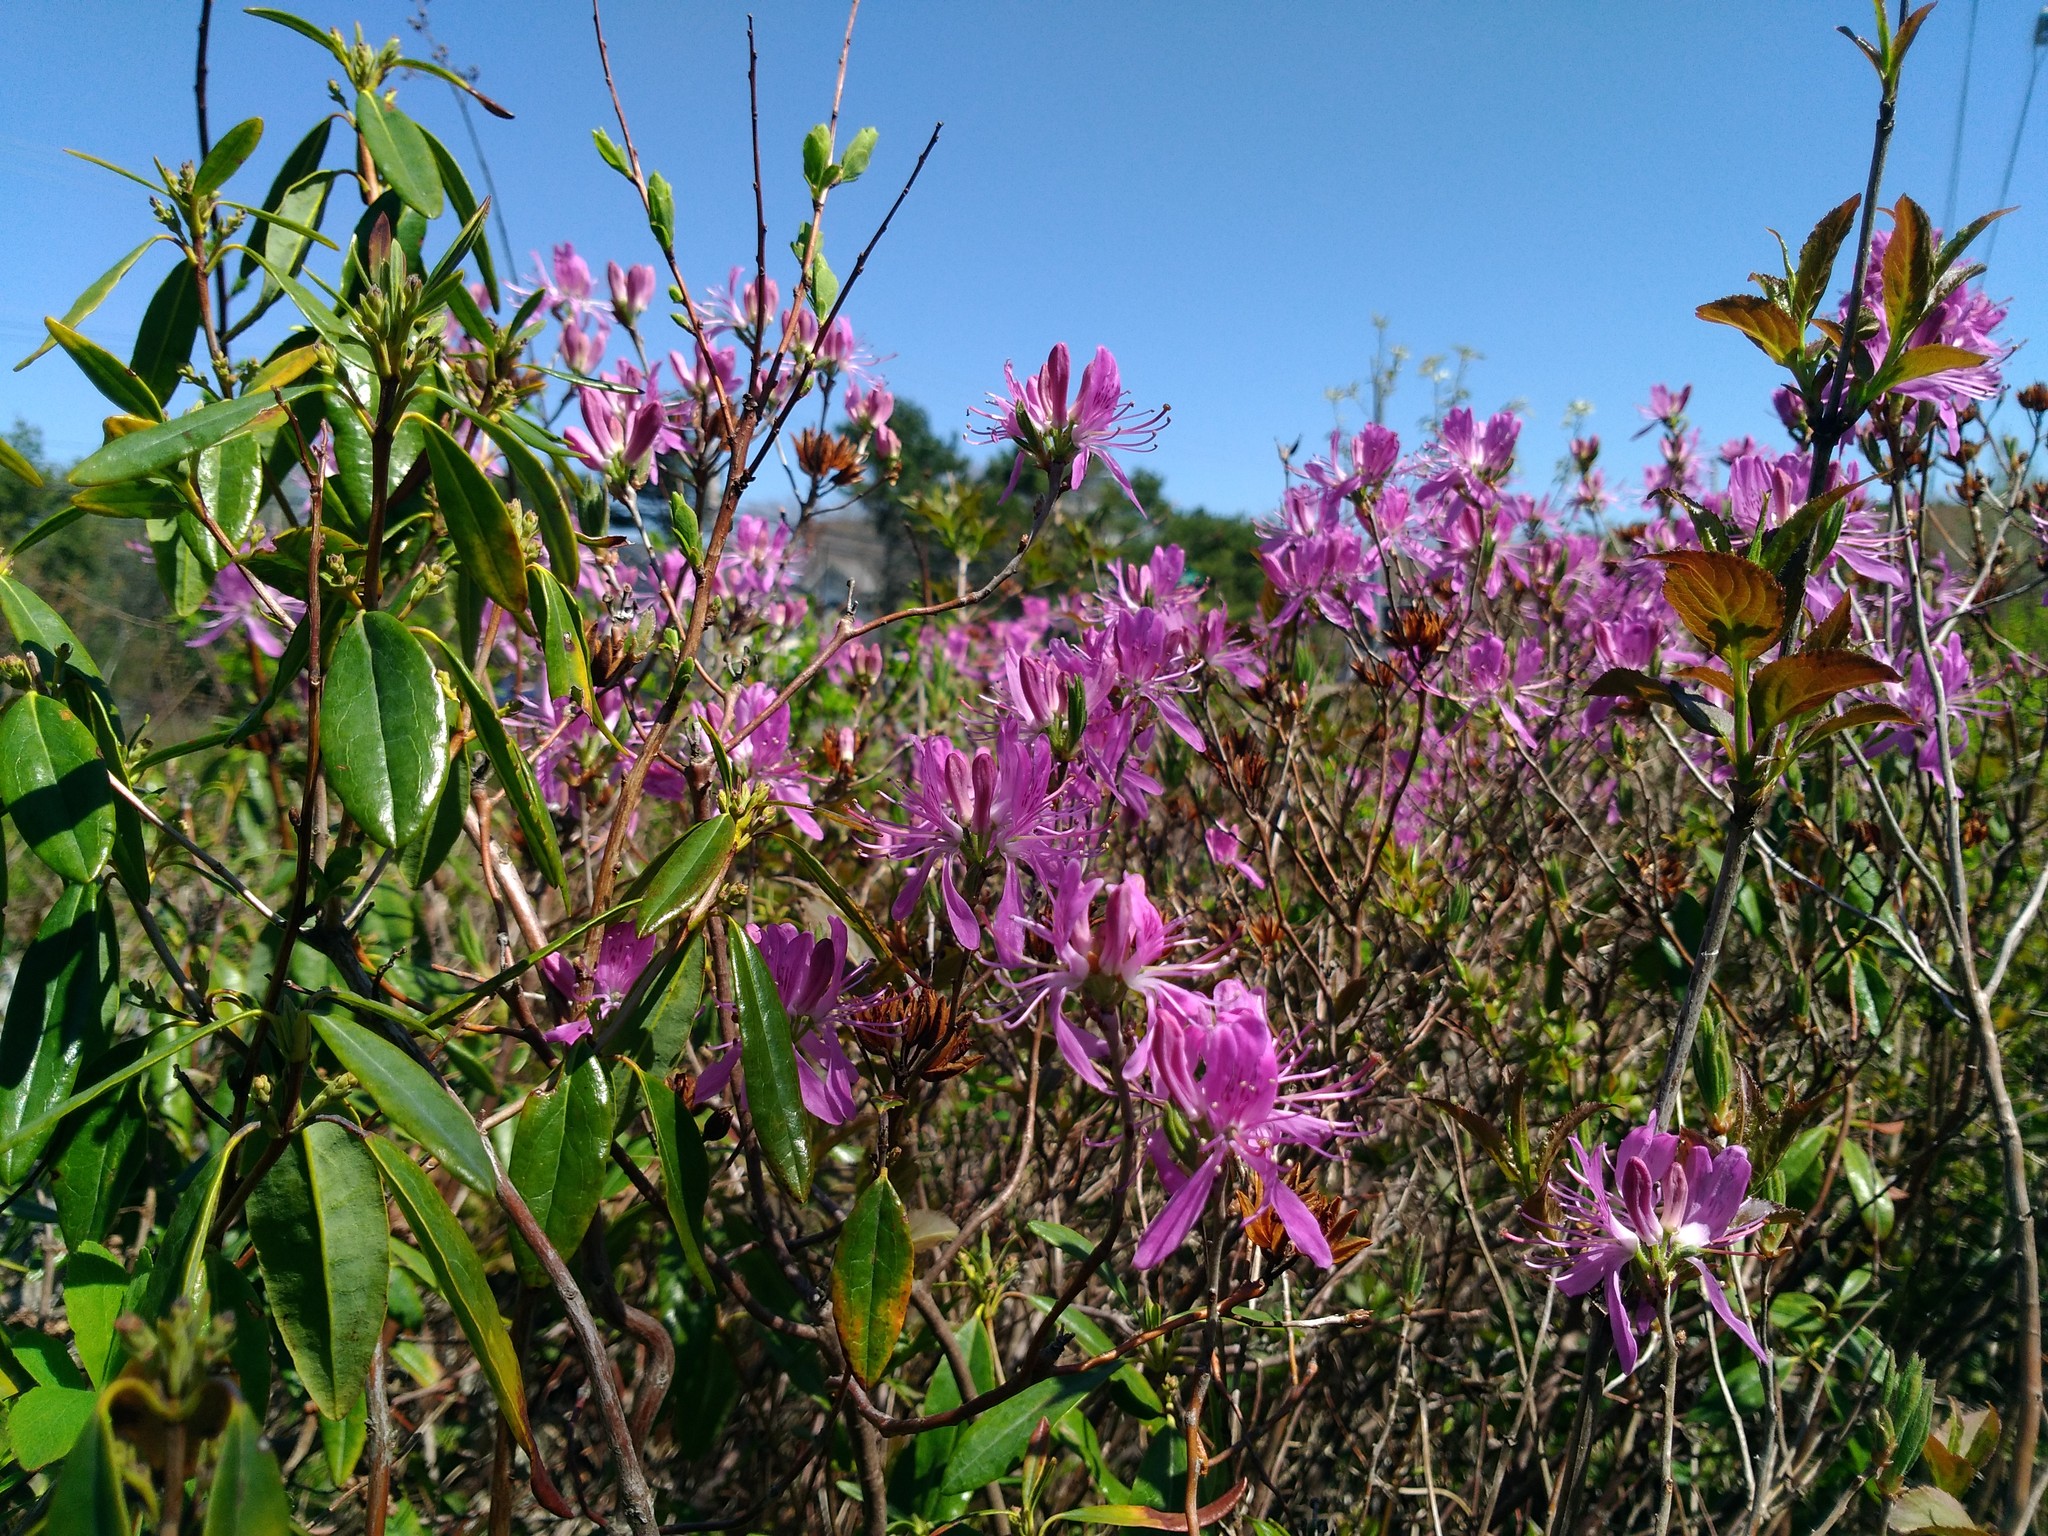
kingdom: Plantae
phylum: Tracheophyta
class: Magnoliopsida
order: Ericales
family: Ericaceae
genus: Rhododendron
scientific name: Rhododendron canadense
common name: Rhodora
